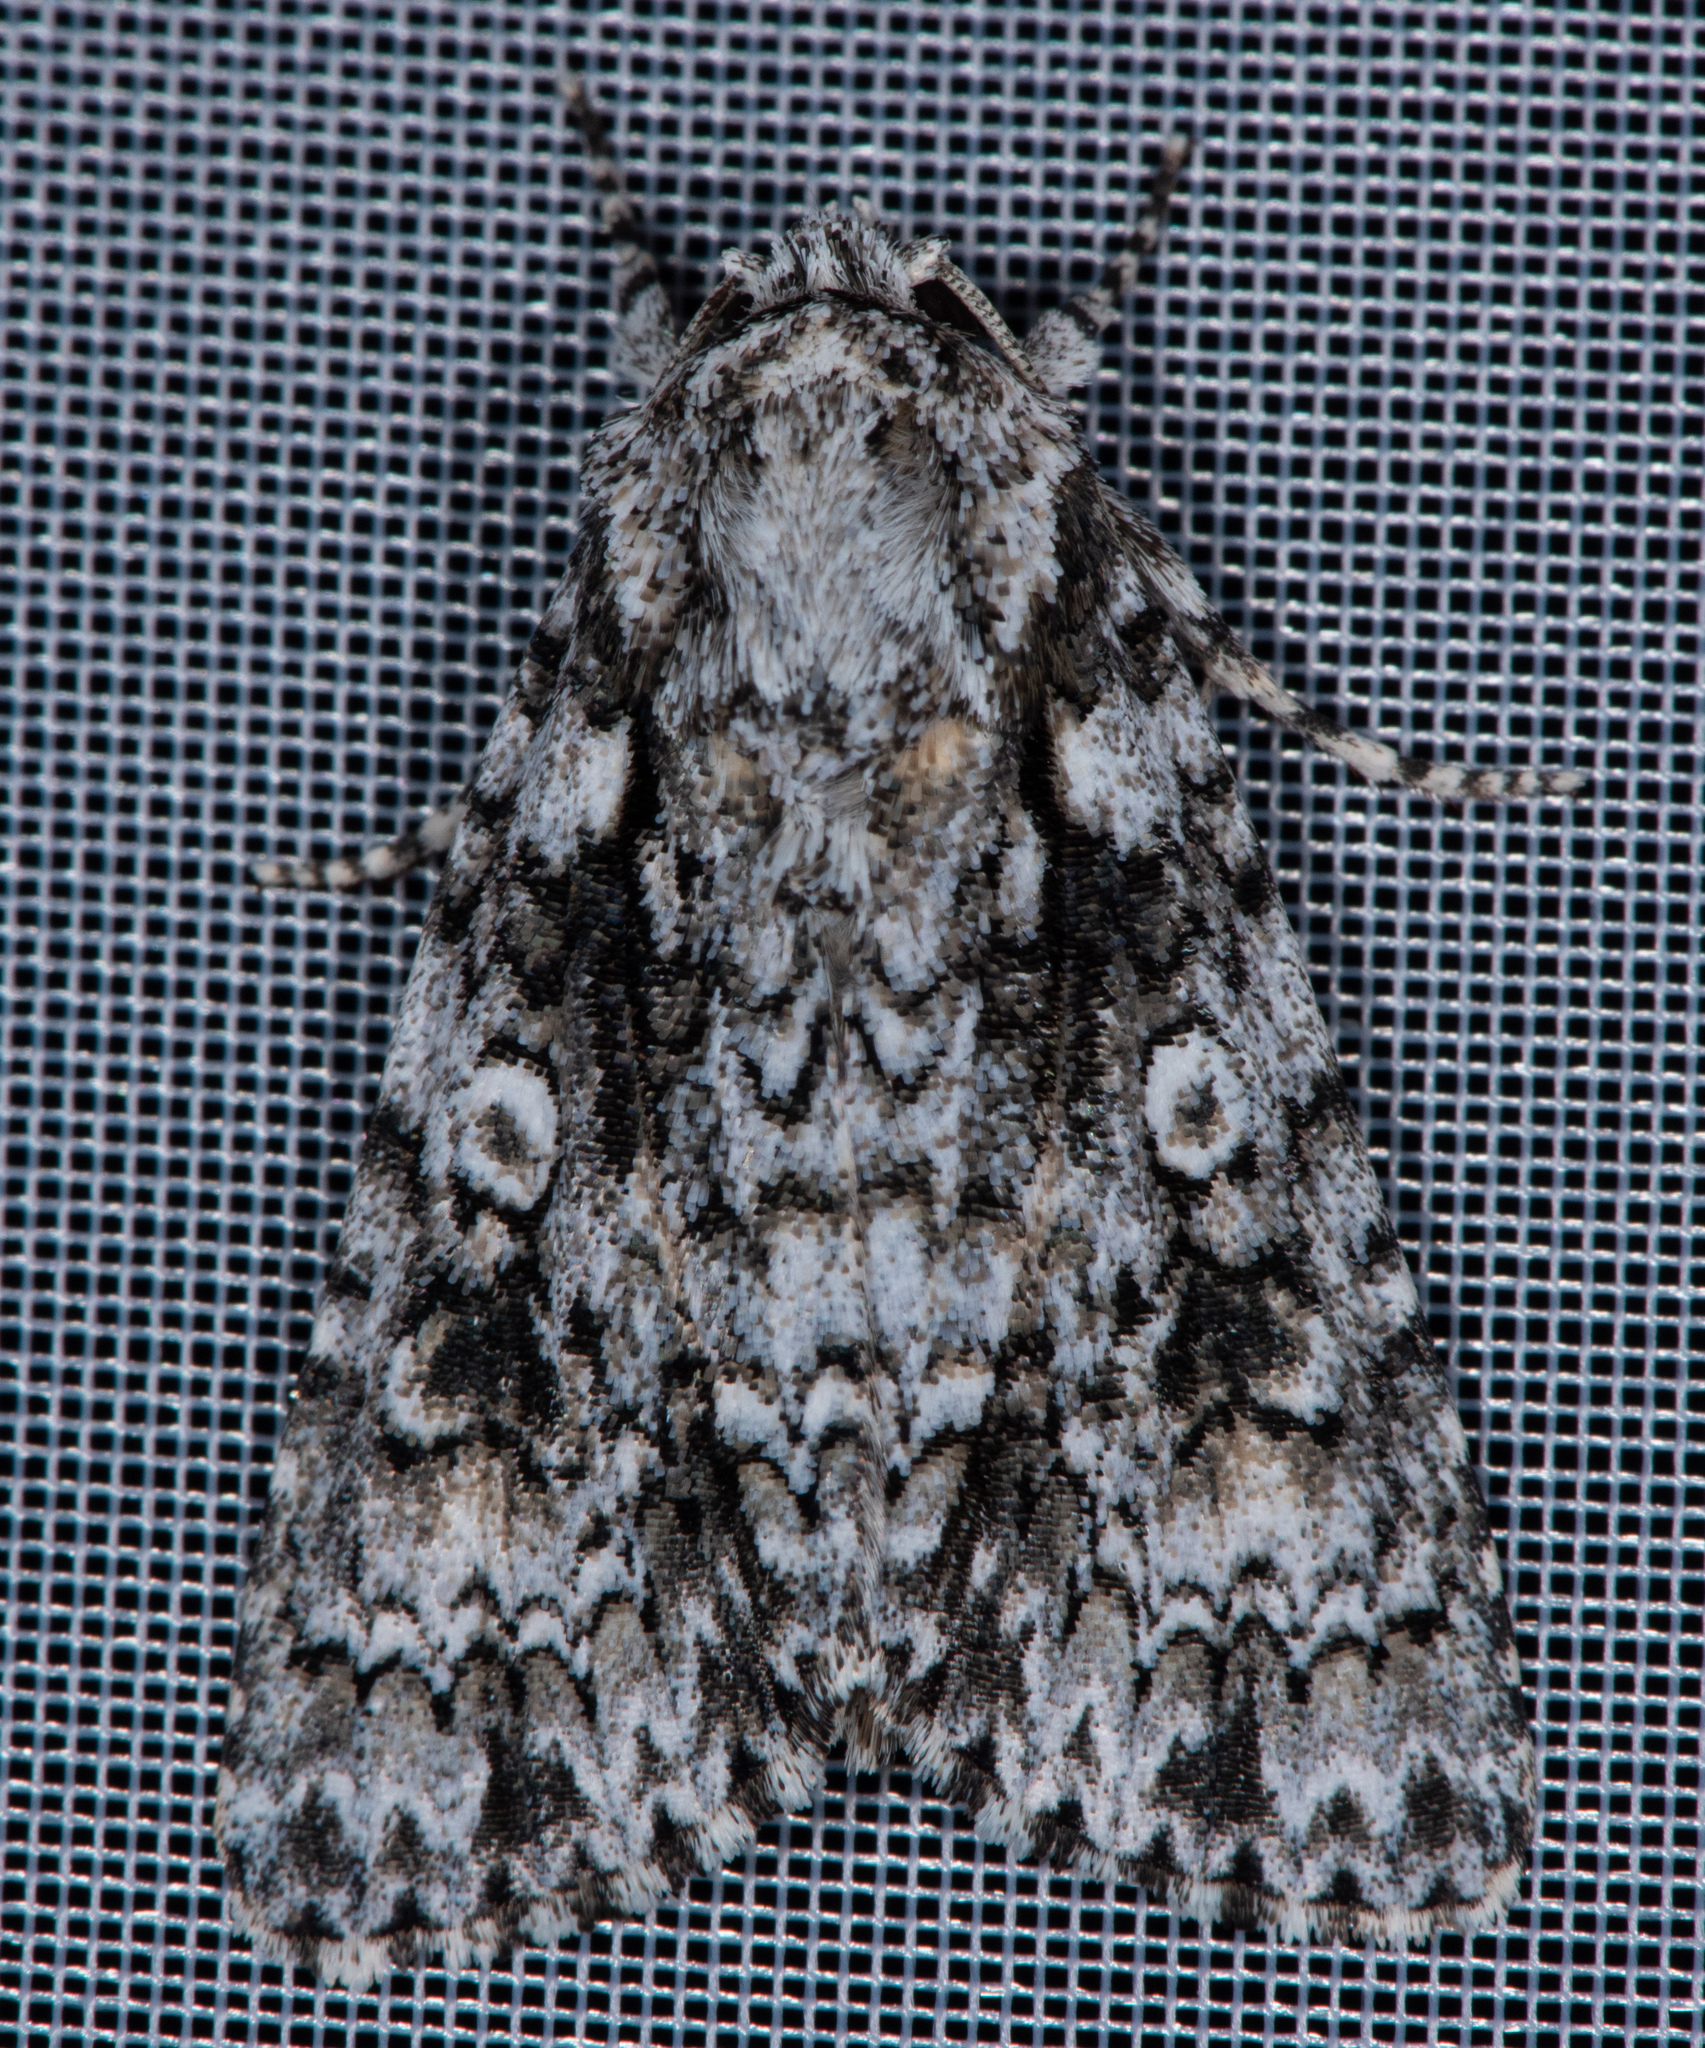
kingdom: Animalia
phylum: Arthropoda
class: Insecta
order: Lepidoptera
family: Noctuidae
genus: Acronicta
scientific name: Acronicta marmorata
